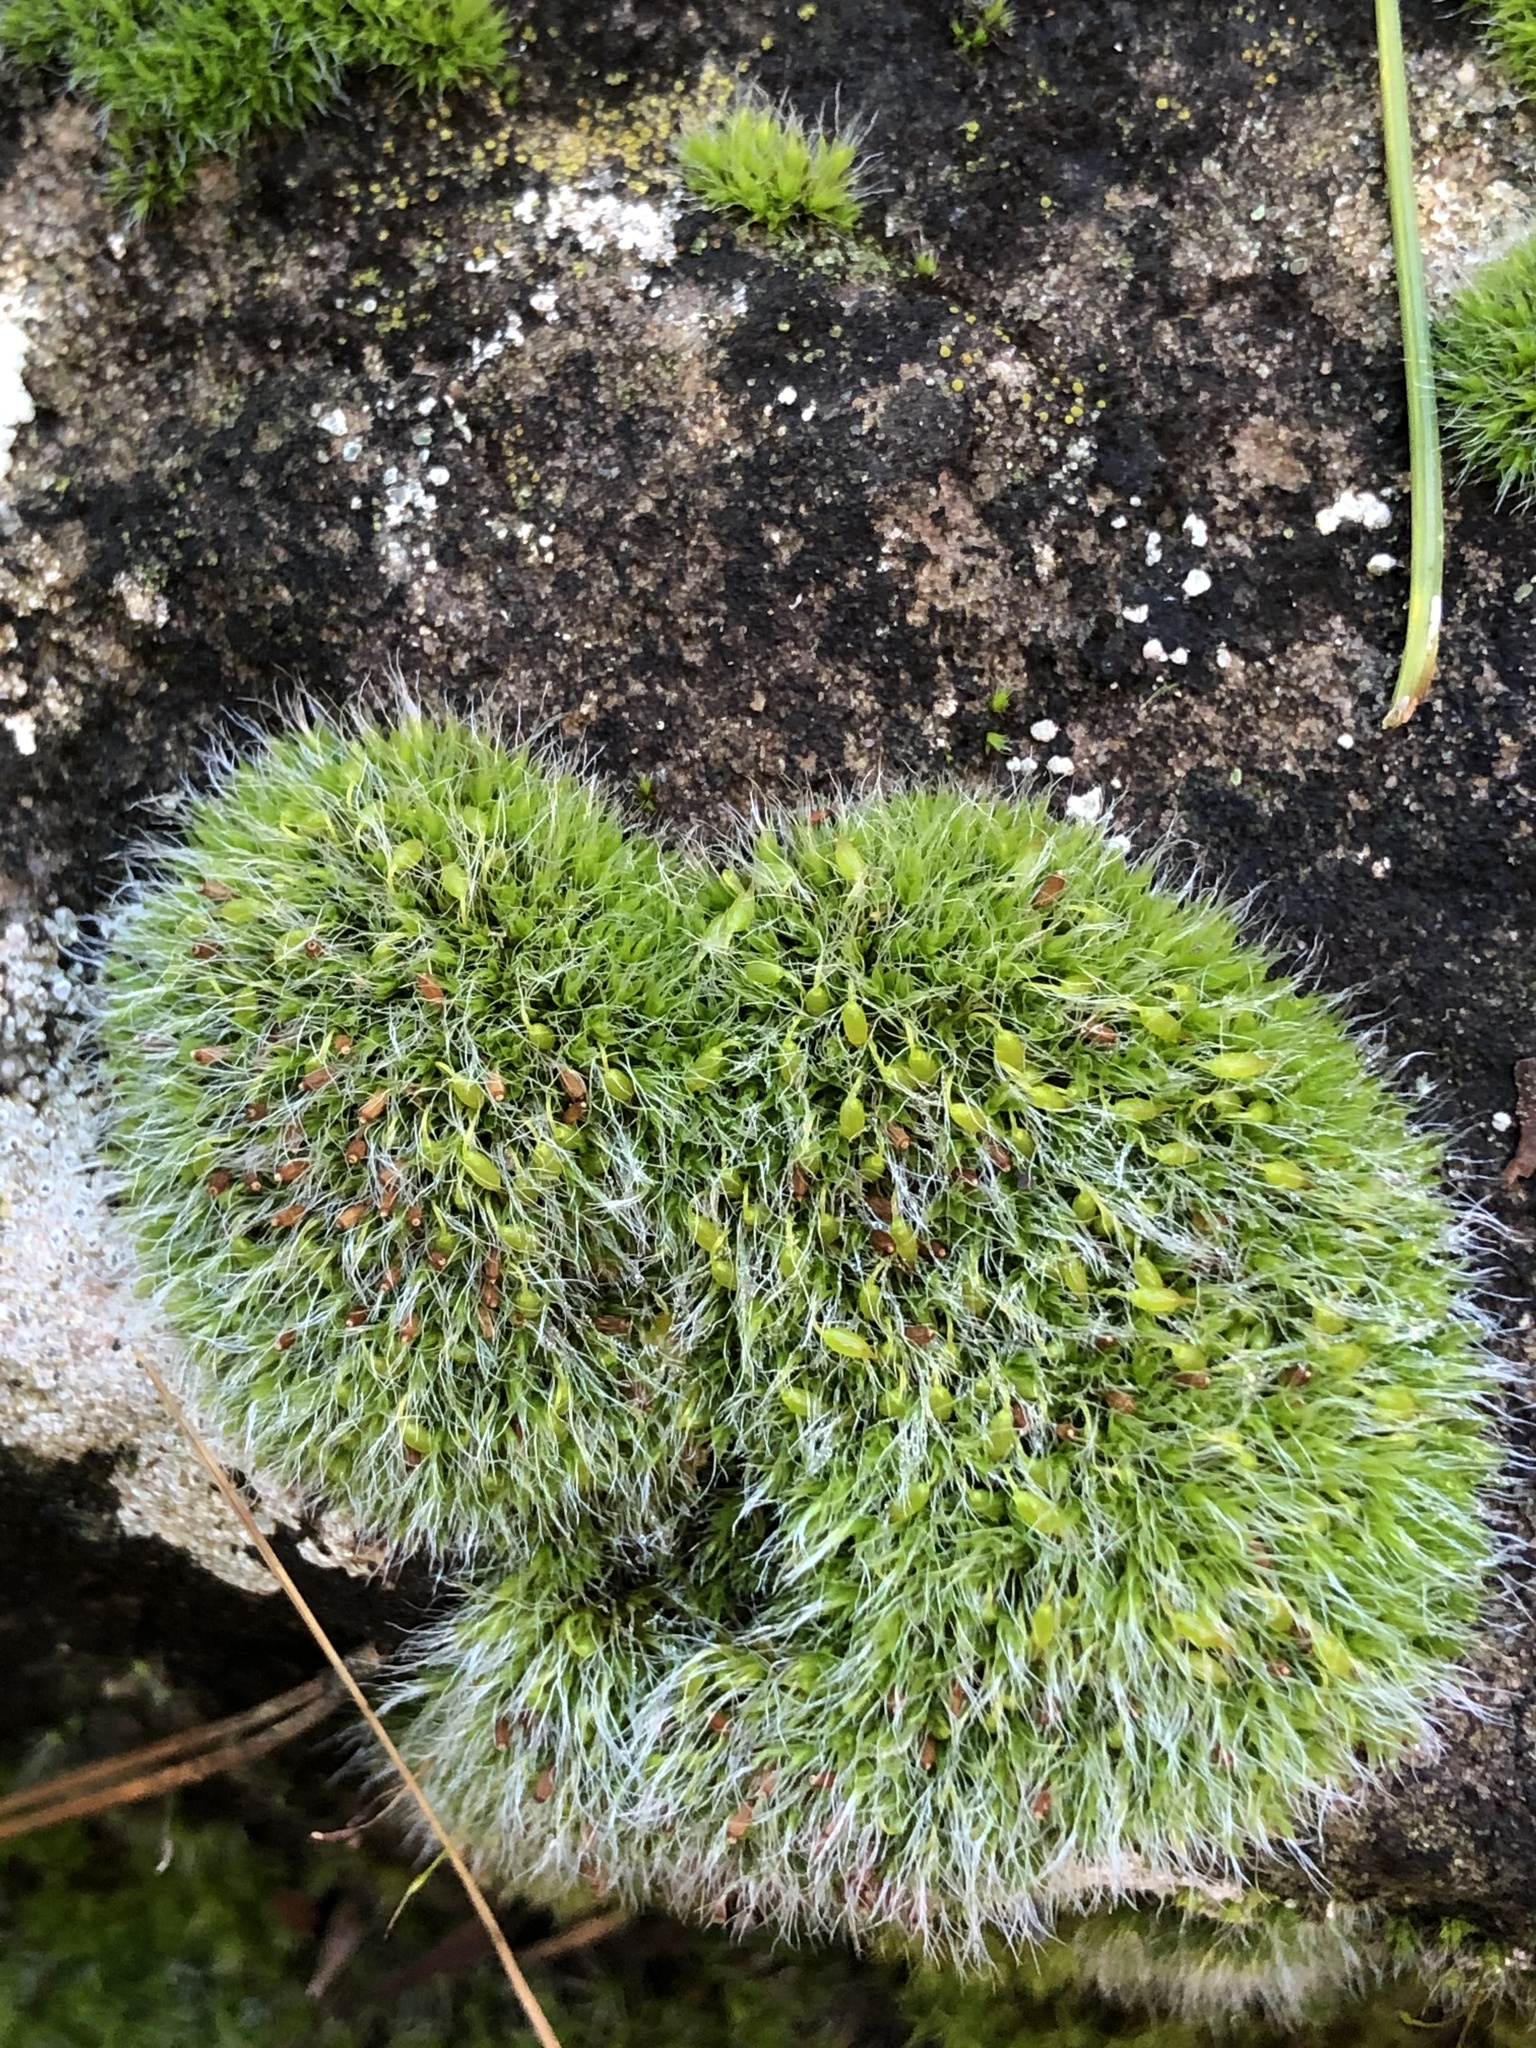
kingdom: Plantae
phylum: Bryophyta
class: Bryopsida
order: Grimmiales
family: Grimmiaceae
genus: Grimmia
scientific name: Grimmia pulvinata
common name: Grey-cushioned grimmia
